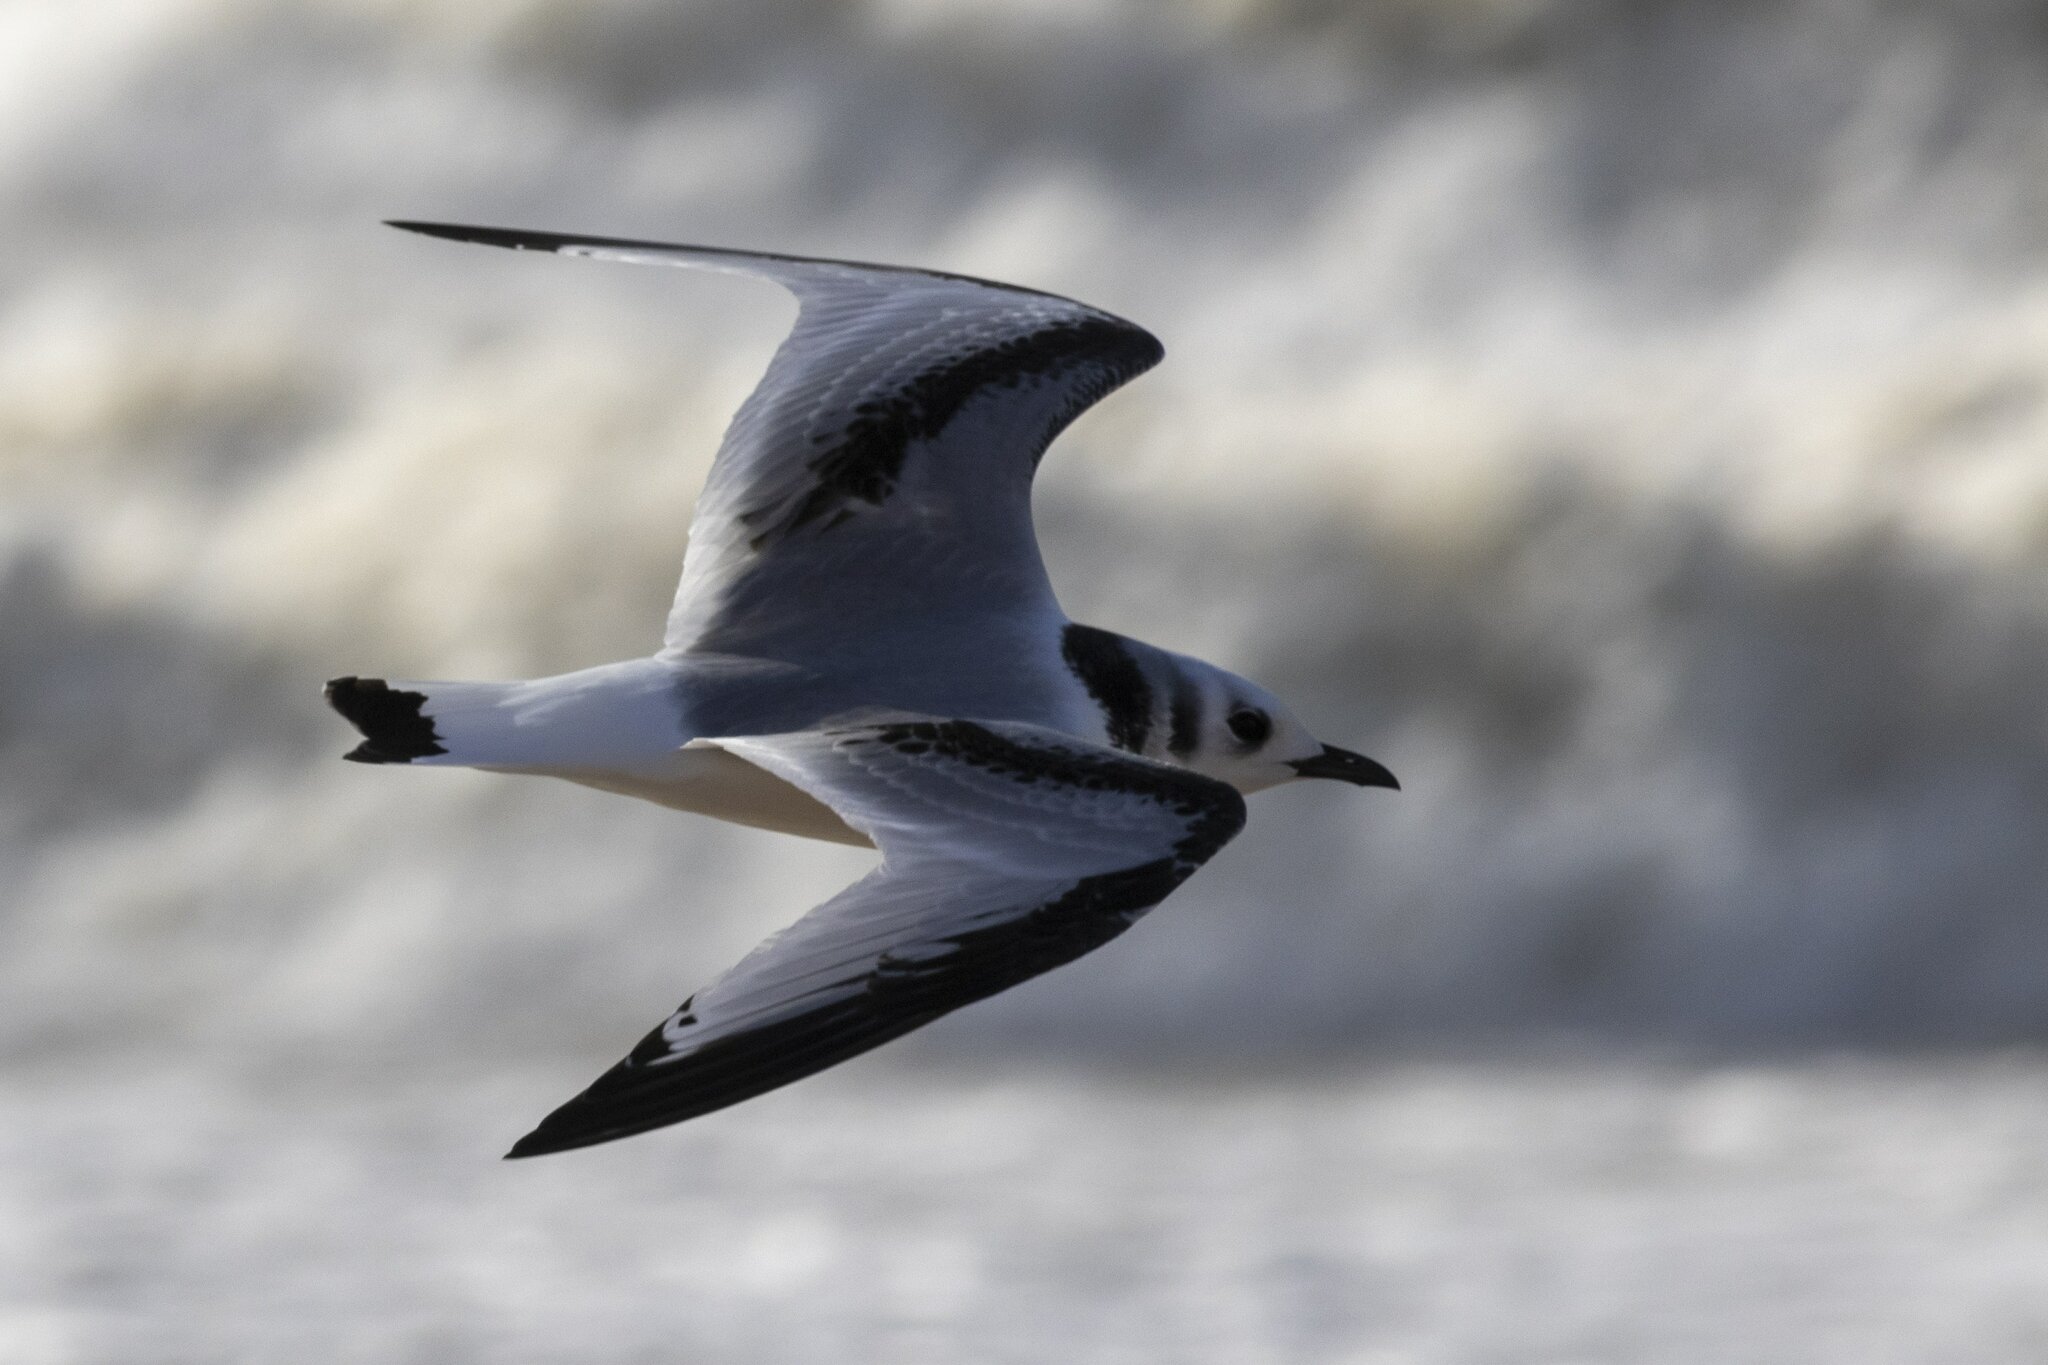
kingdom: Animalia
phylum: Chordata
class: Aves
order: Charadriiformes
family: Laridae
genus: Rissa
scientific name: Rissa tridactyla
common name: Black-legged kittiwake
